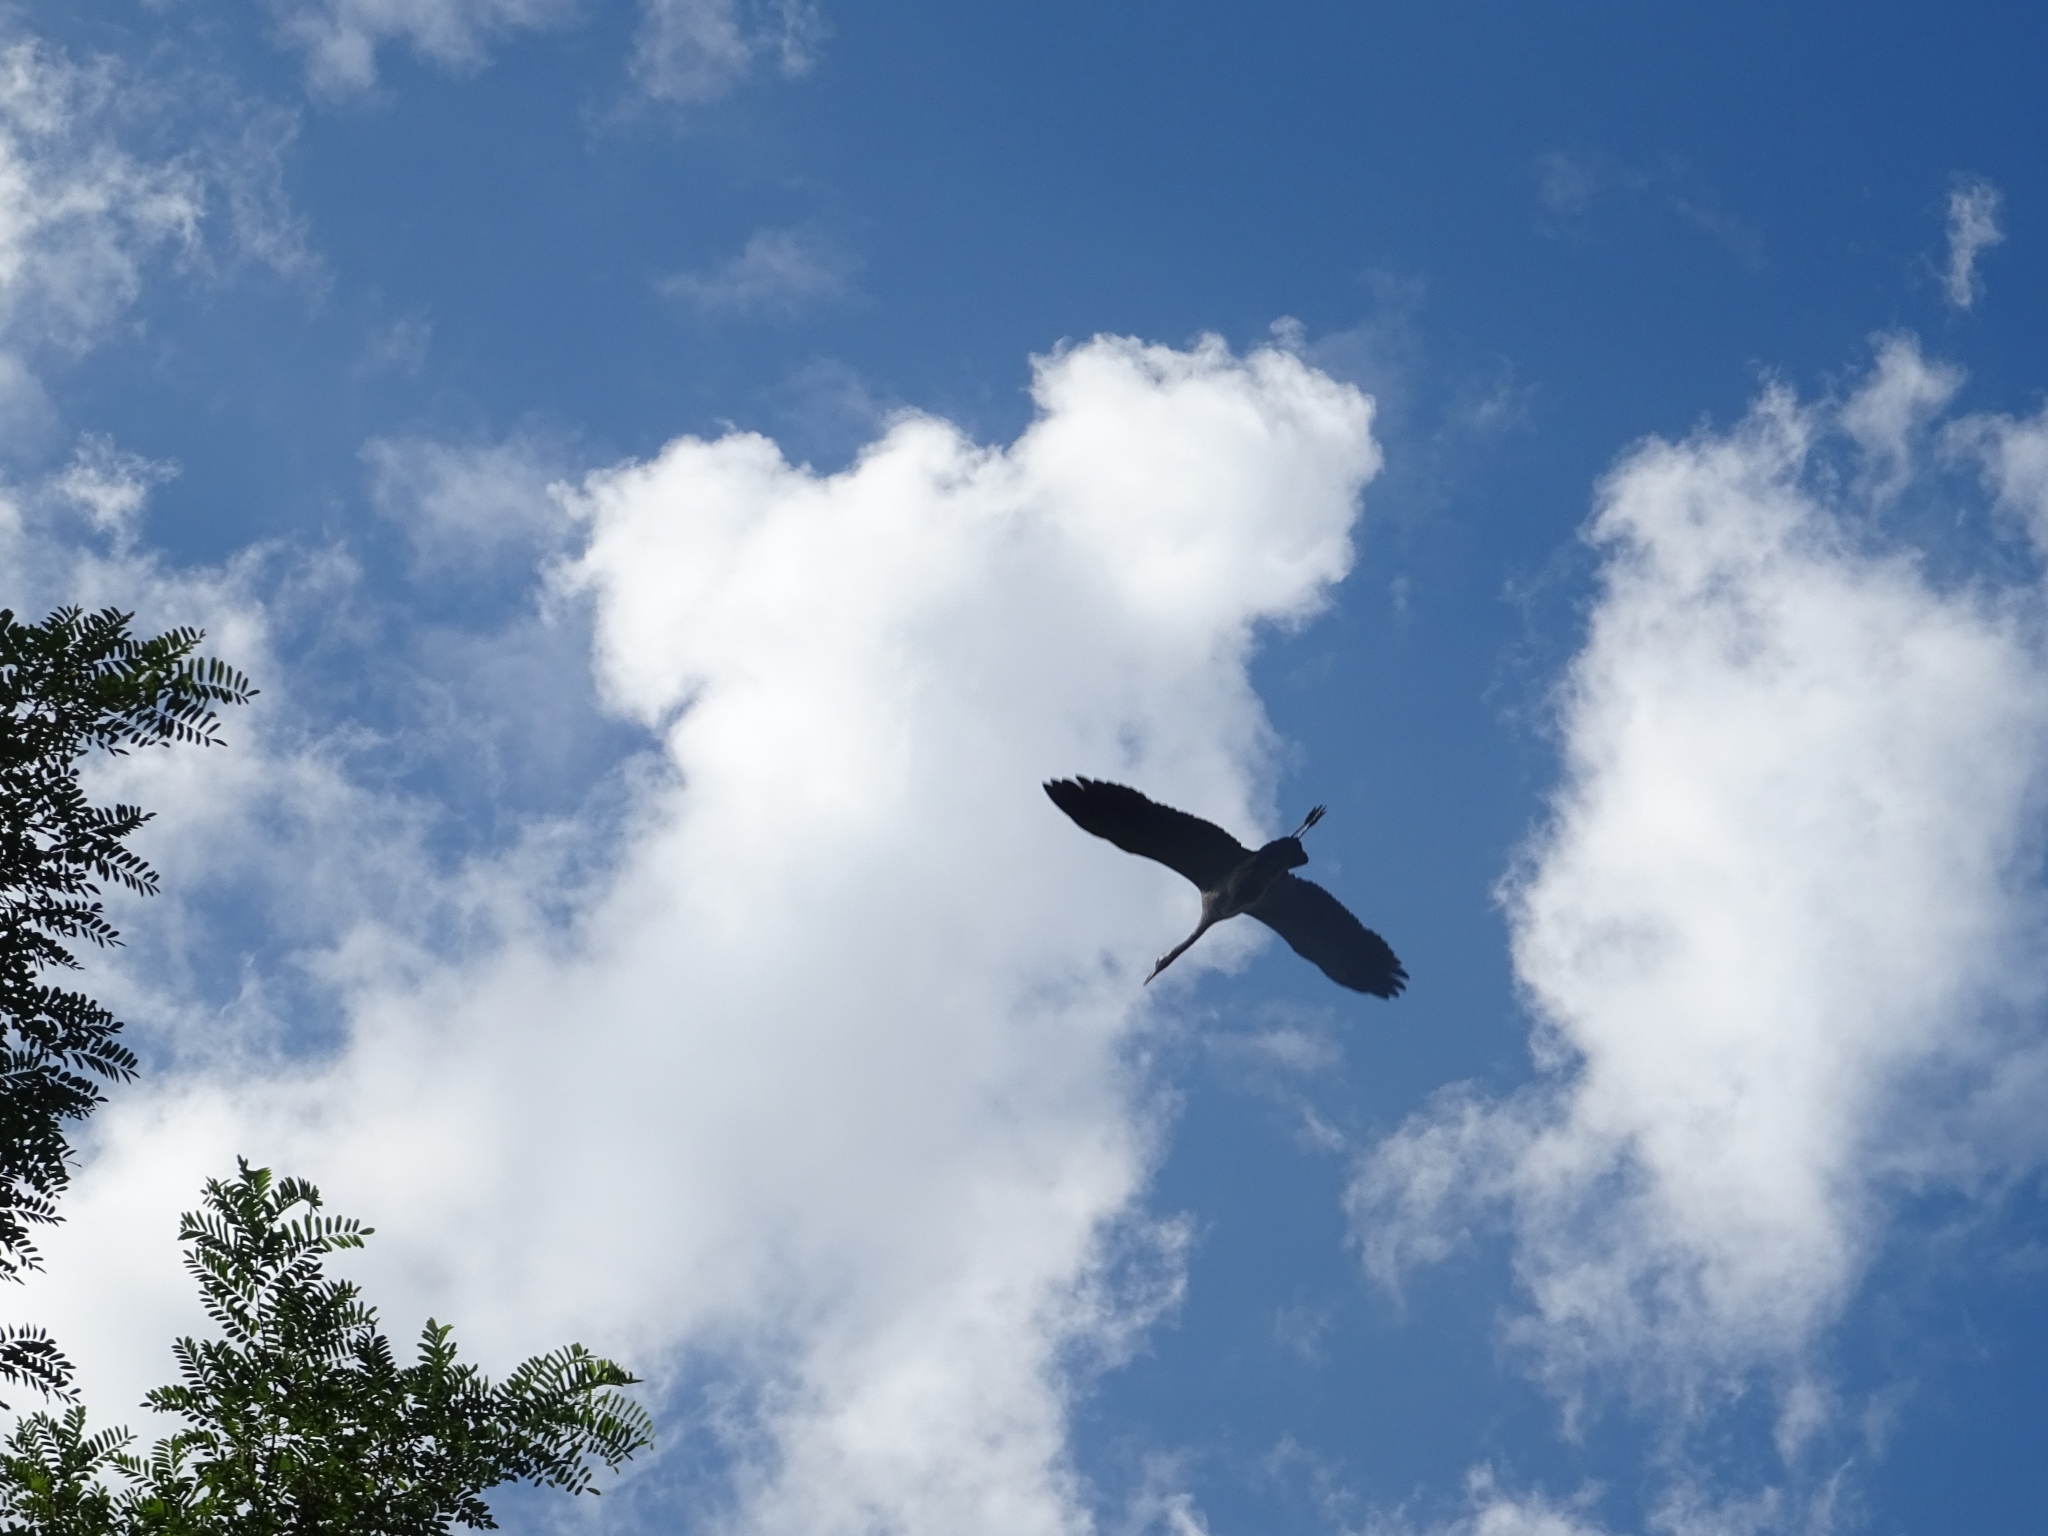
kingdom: Animalia
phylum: Chordata
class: Aves
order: Gruiformes
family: Gruidae
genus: Grus
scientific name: Grus grus
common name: Common crane
